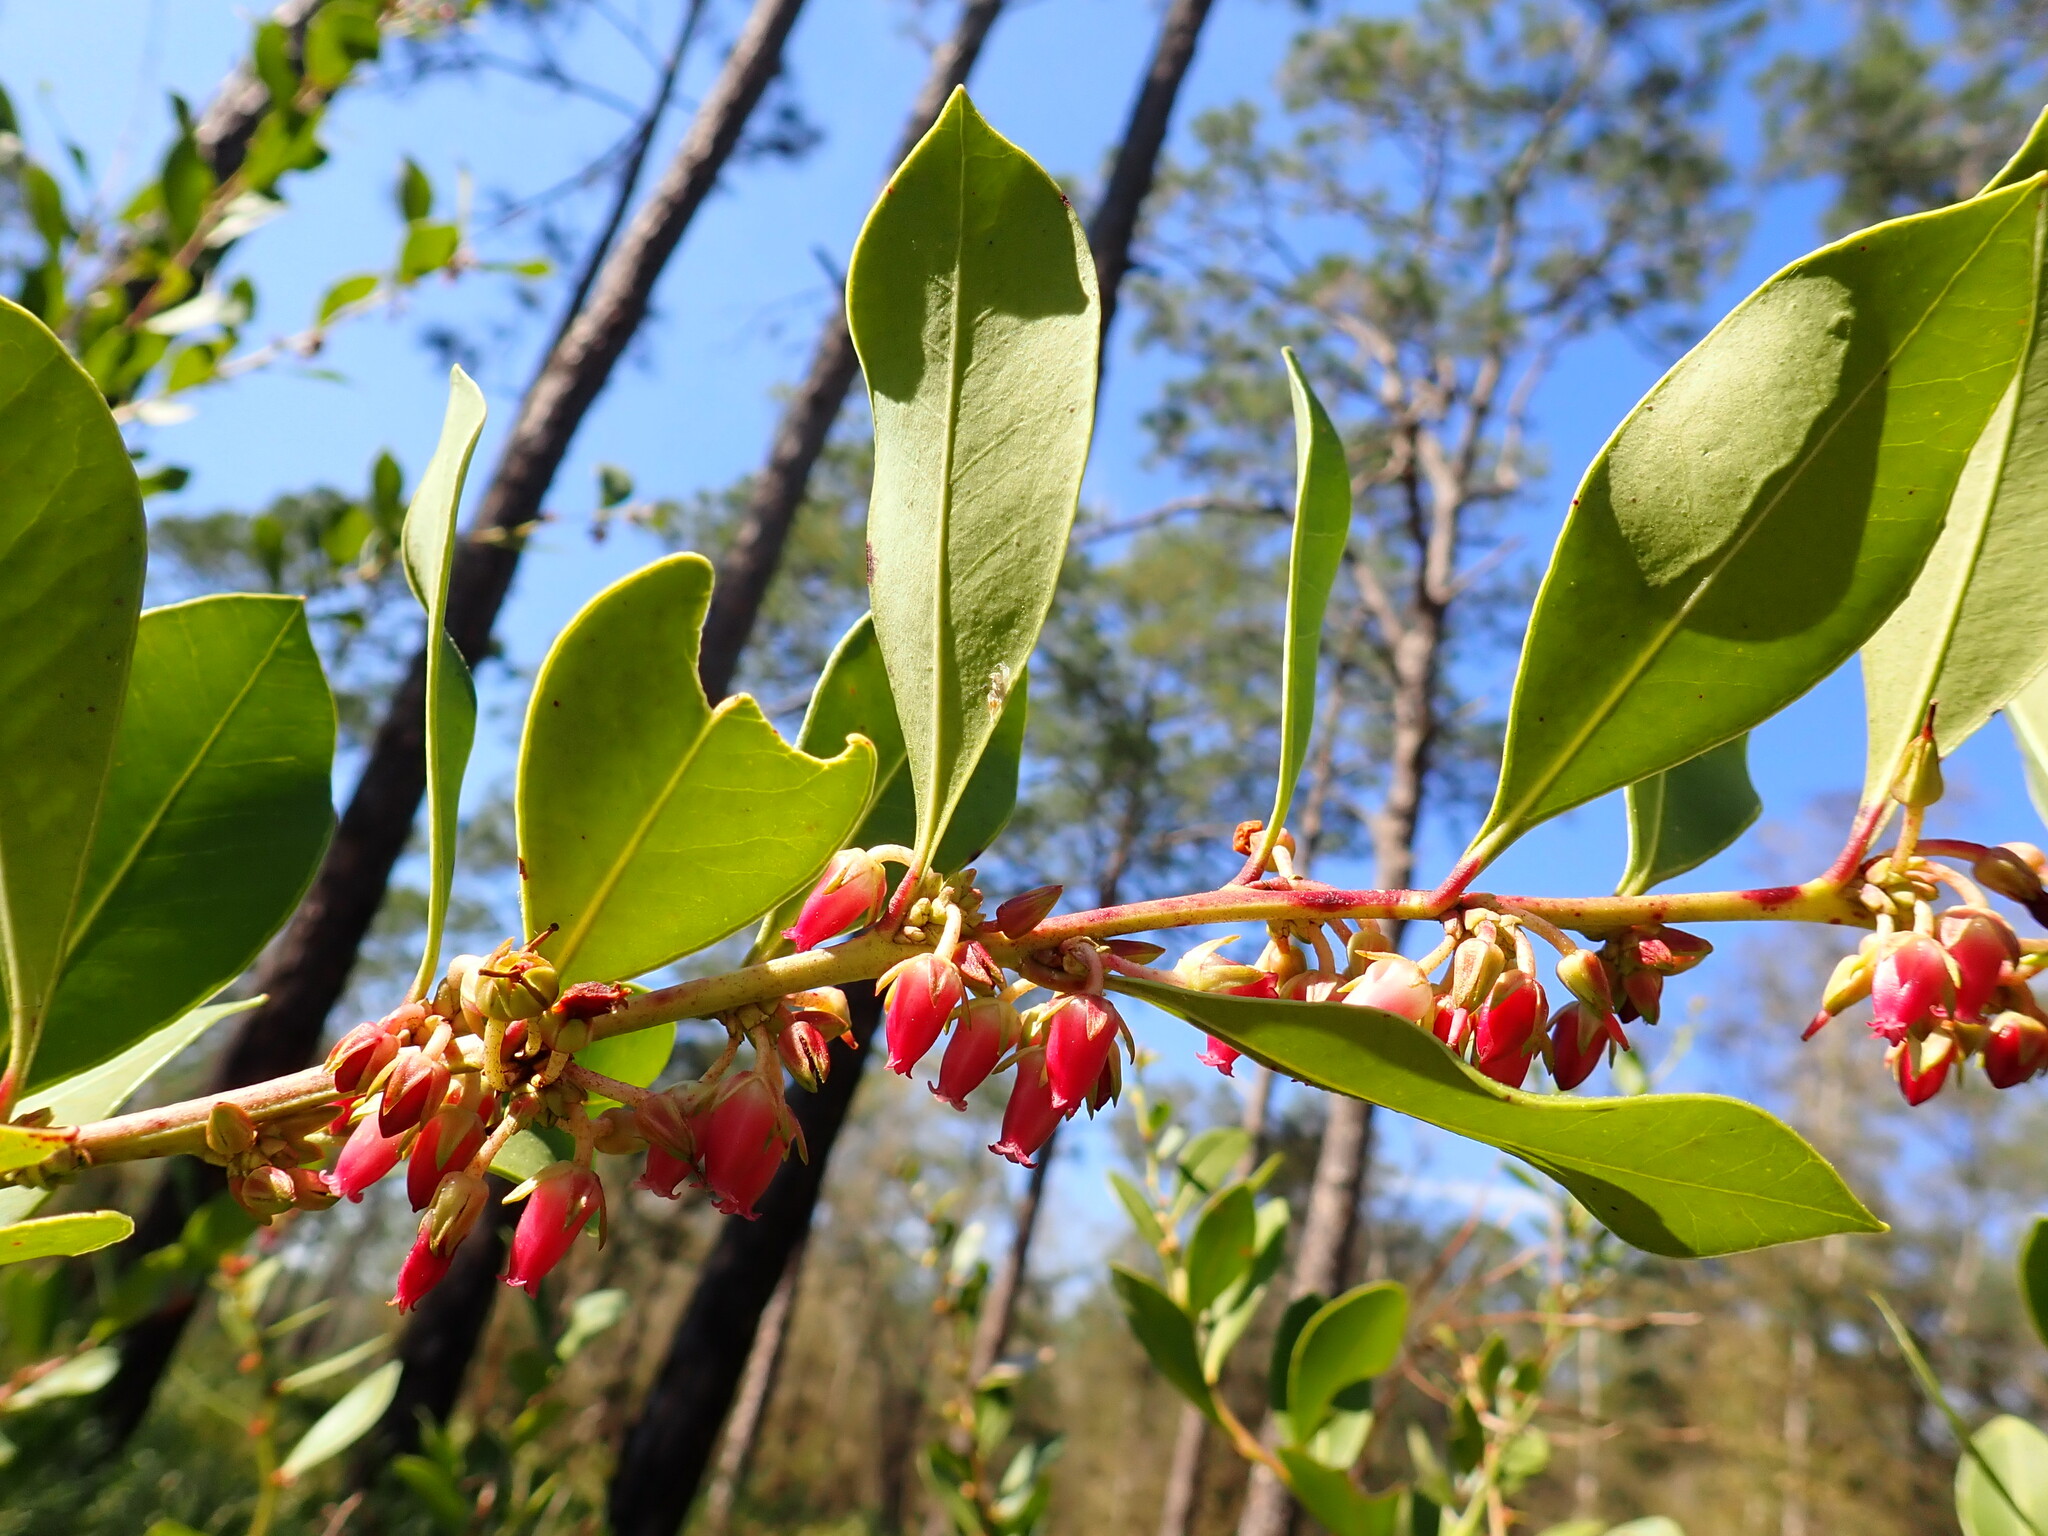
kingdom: Plantae
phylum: Tracheophyta
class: Magnoliopsida
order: Ericales
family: Ericaceae
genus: Lyonia
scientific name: Lyonia lucida
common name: Fetterbush
